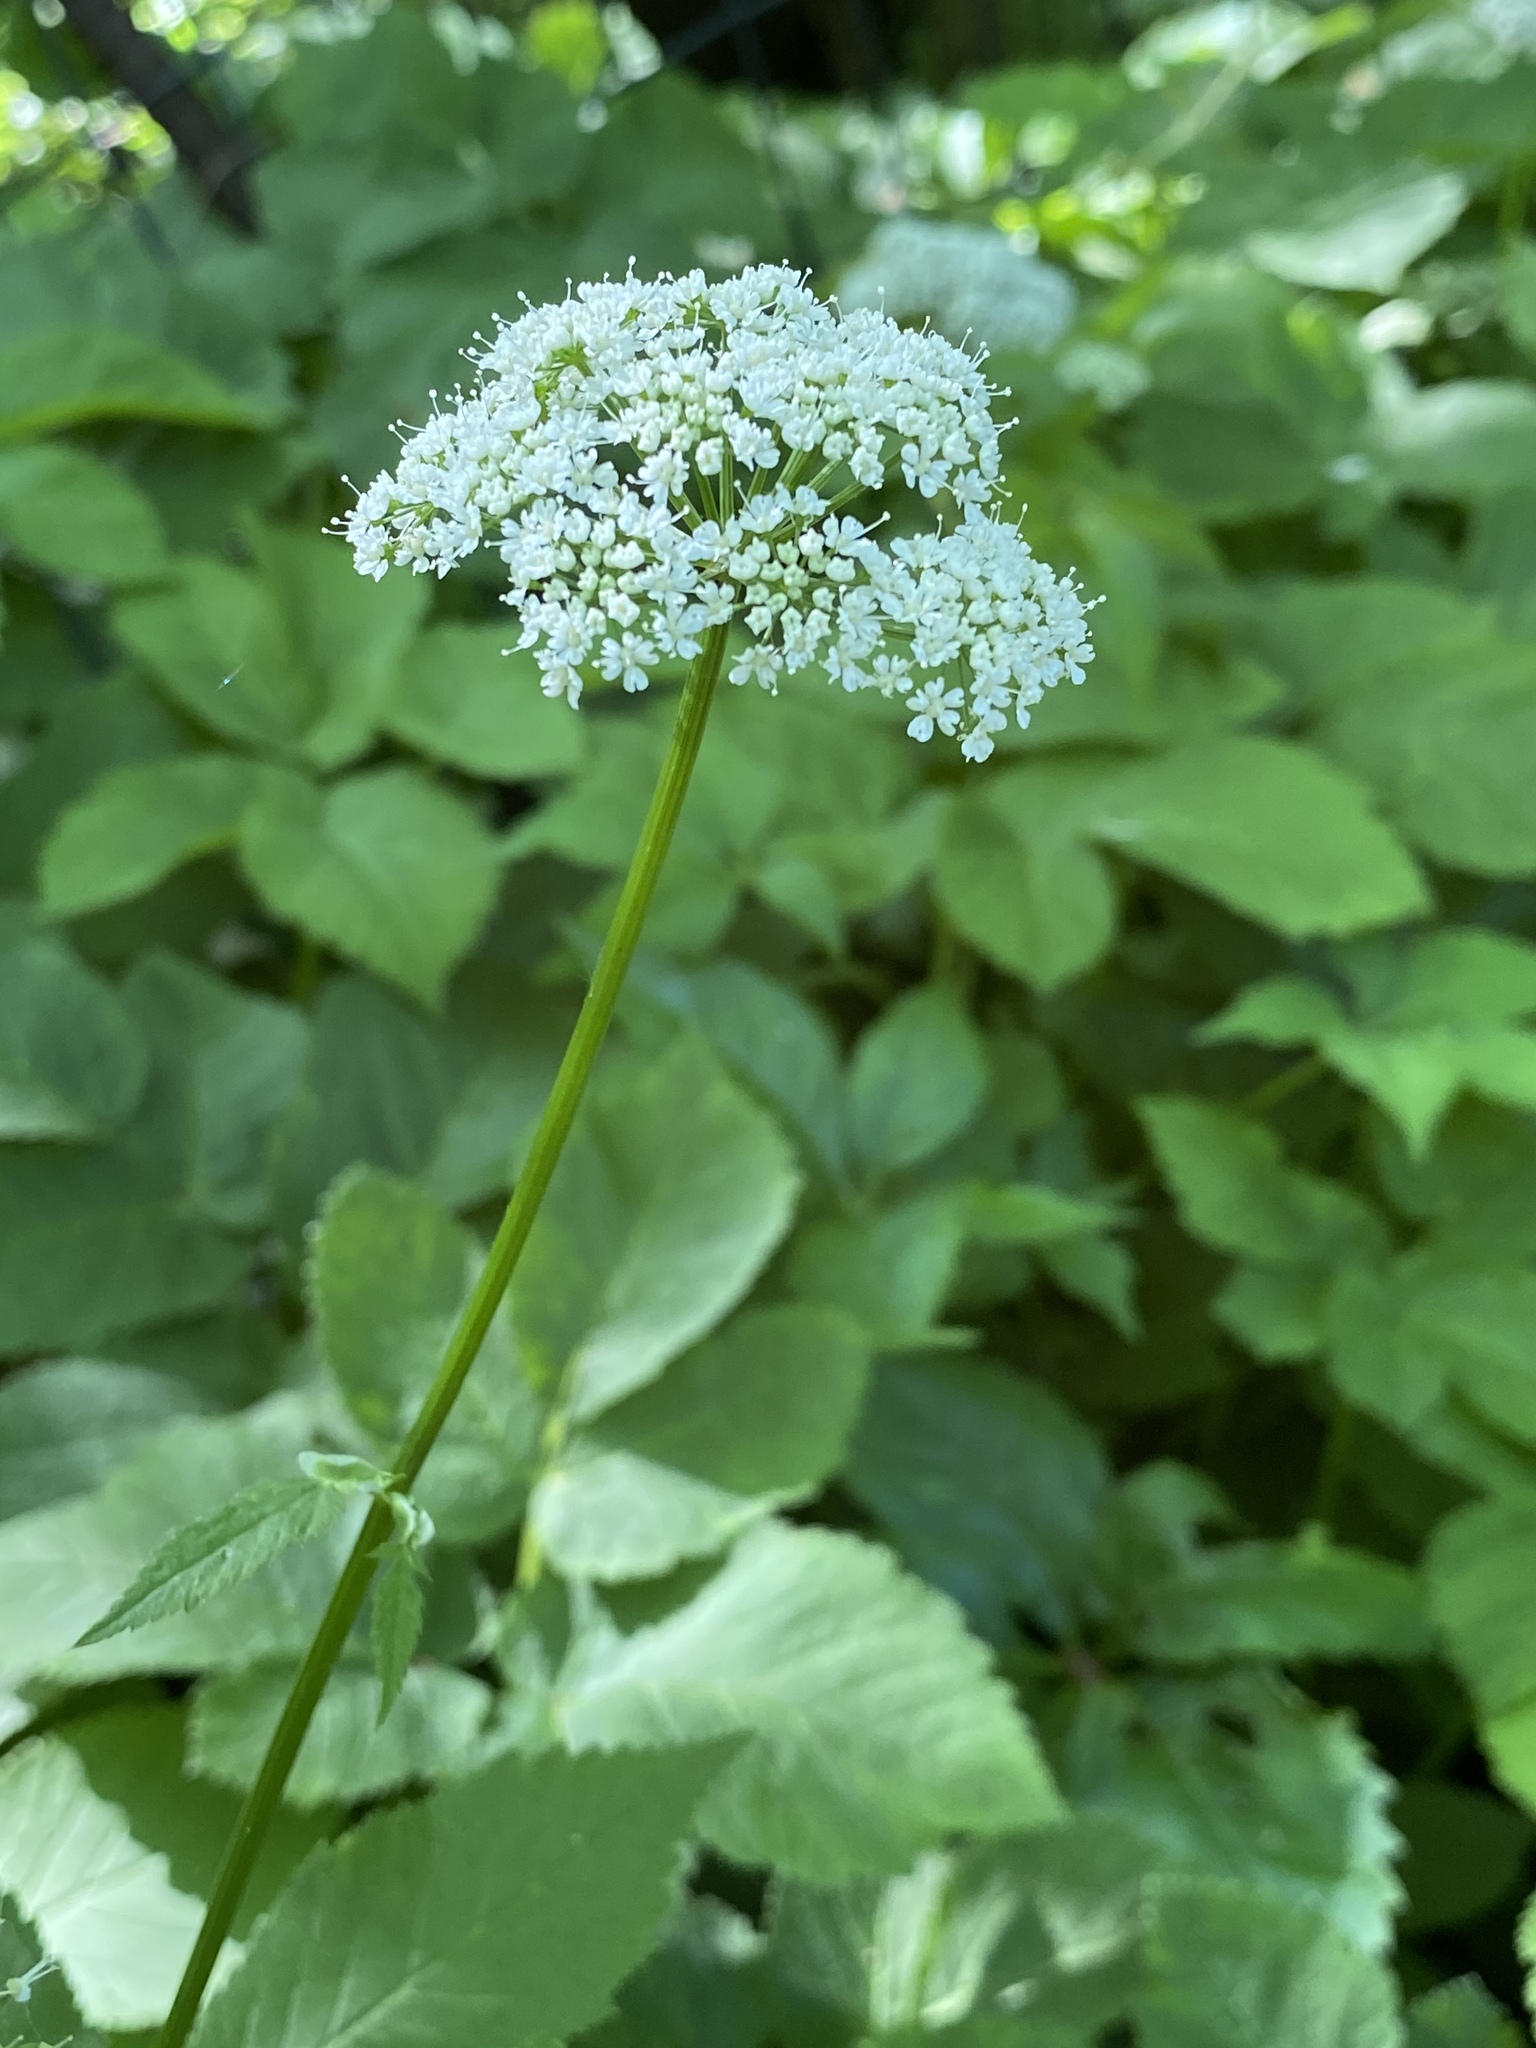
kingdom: Plantae
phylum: Tracheophyta
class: Magnoliopsida
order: Apiales
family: Apiaceae
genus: Aegopodium
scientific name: Aegopodium podagraria
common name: Ground-elder
